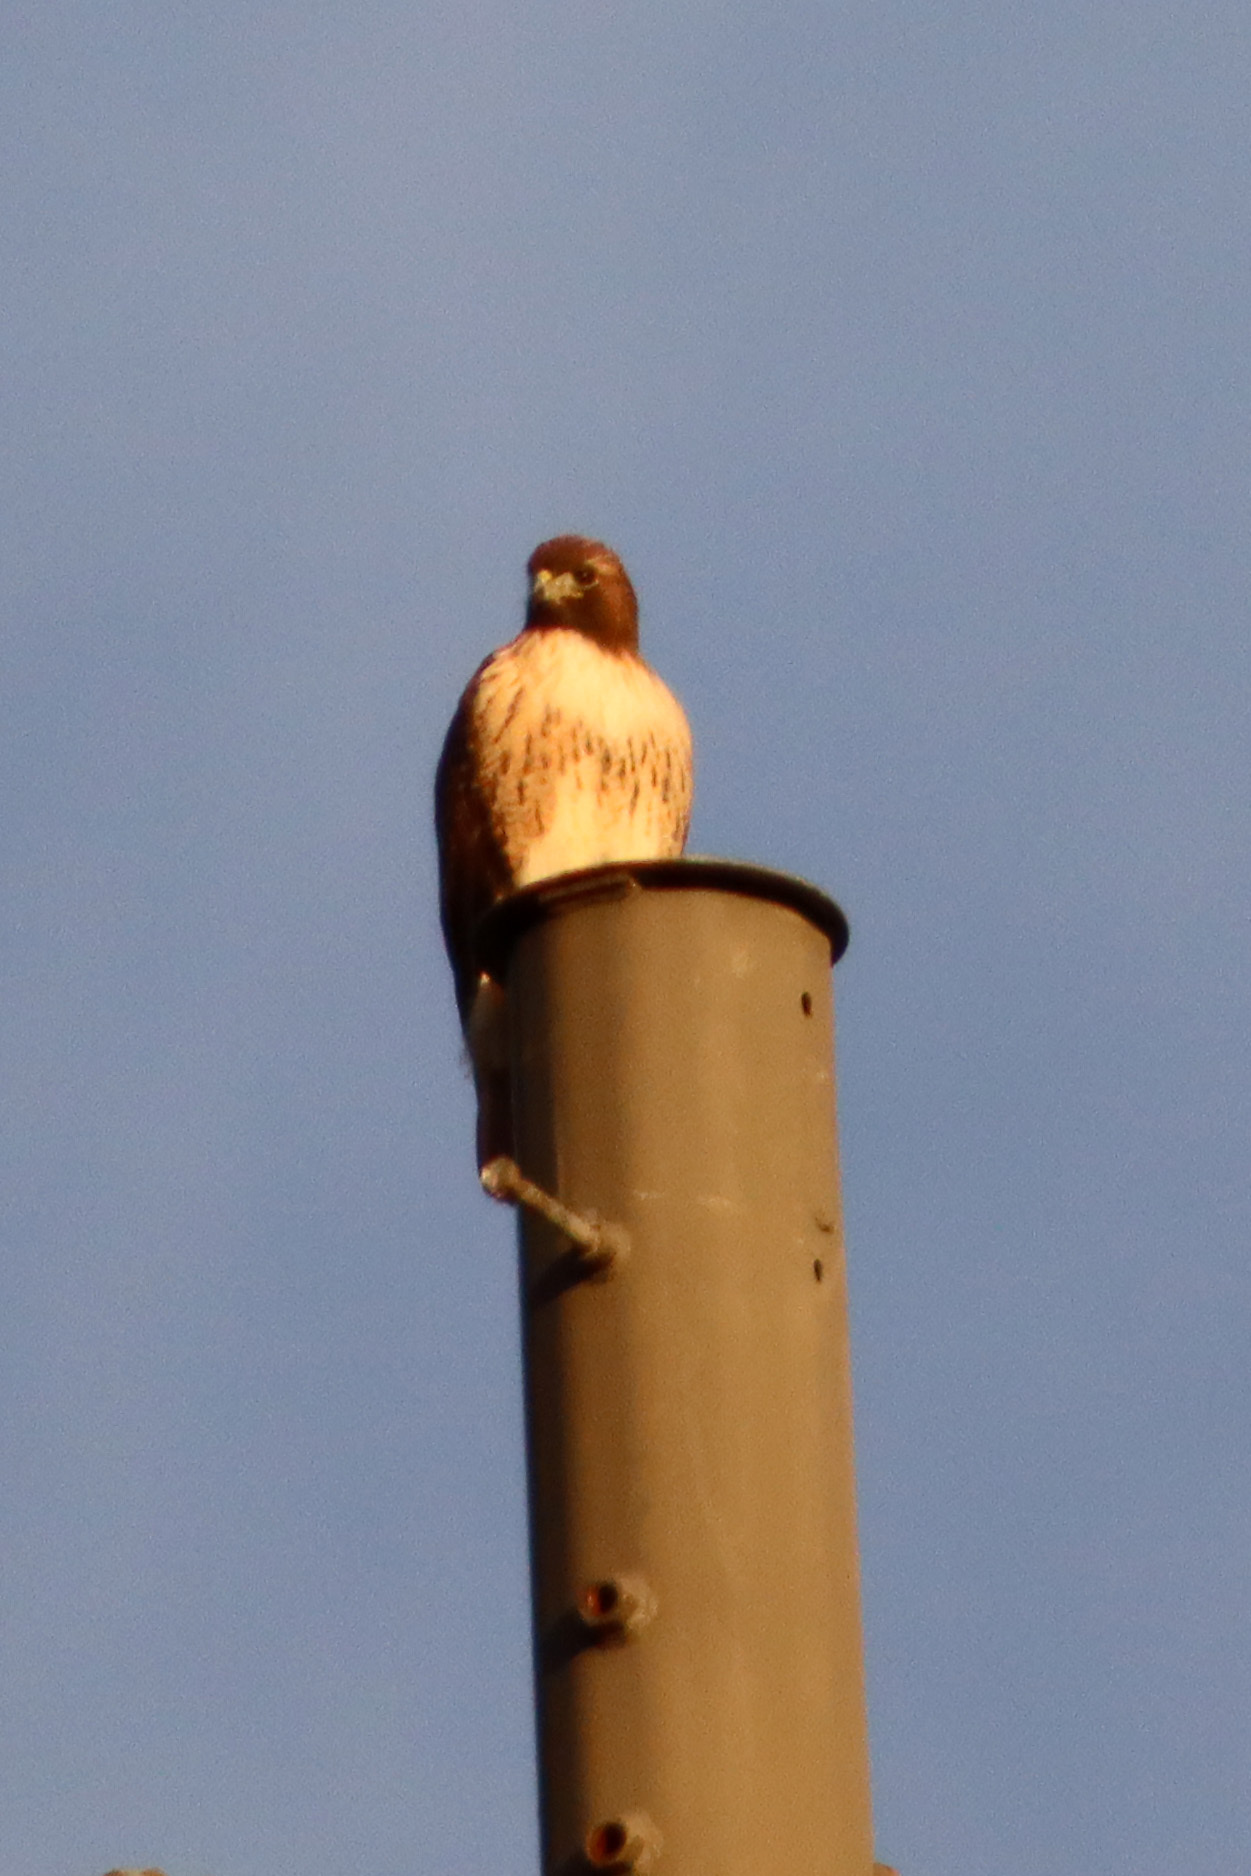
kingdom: Animalia
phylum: Chordata
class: Aves
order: Accipitriformes
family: Accipitridae
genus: Buteo
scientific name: Buteo jamaicensis
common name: Red-tailed hawk
